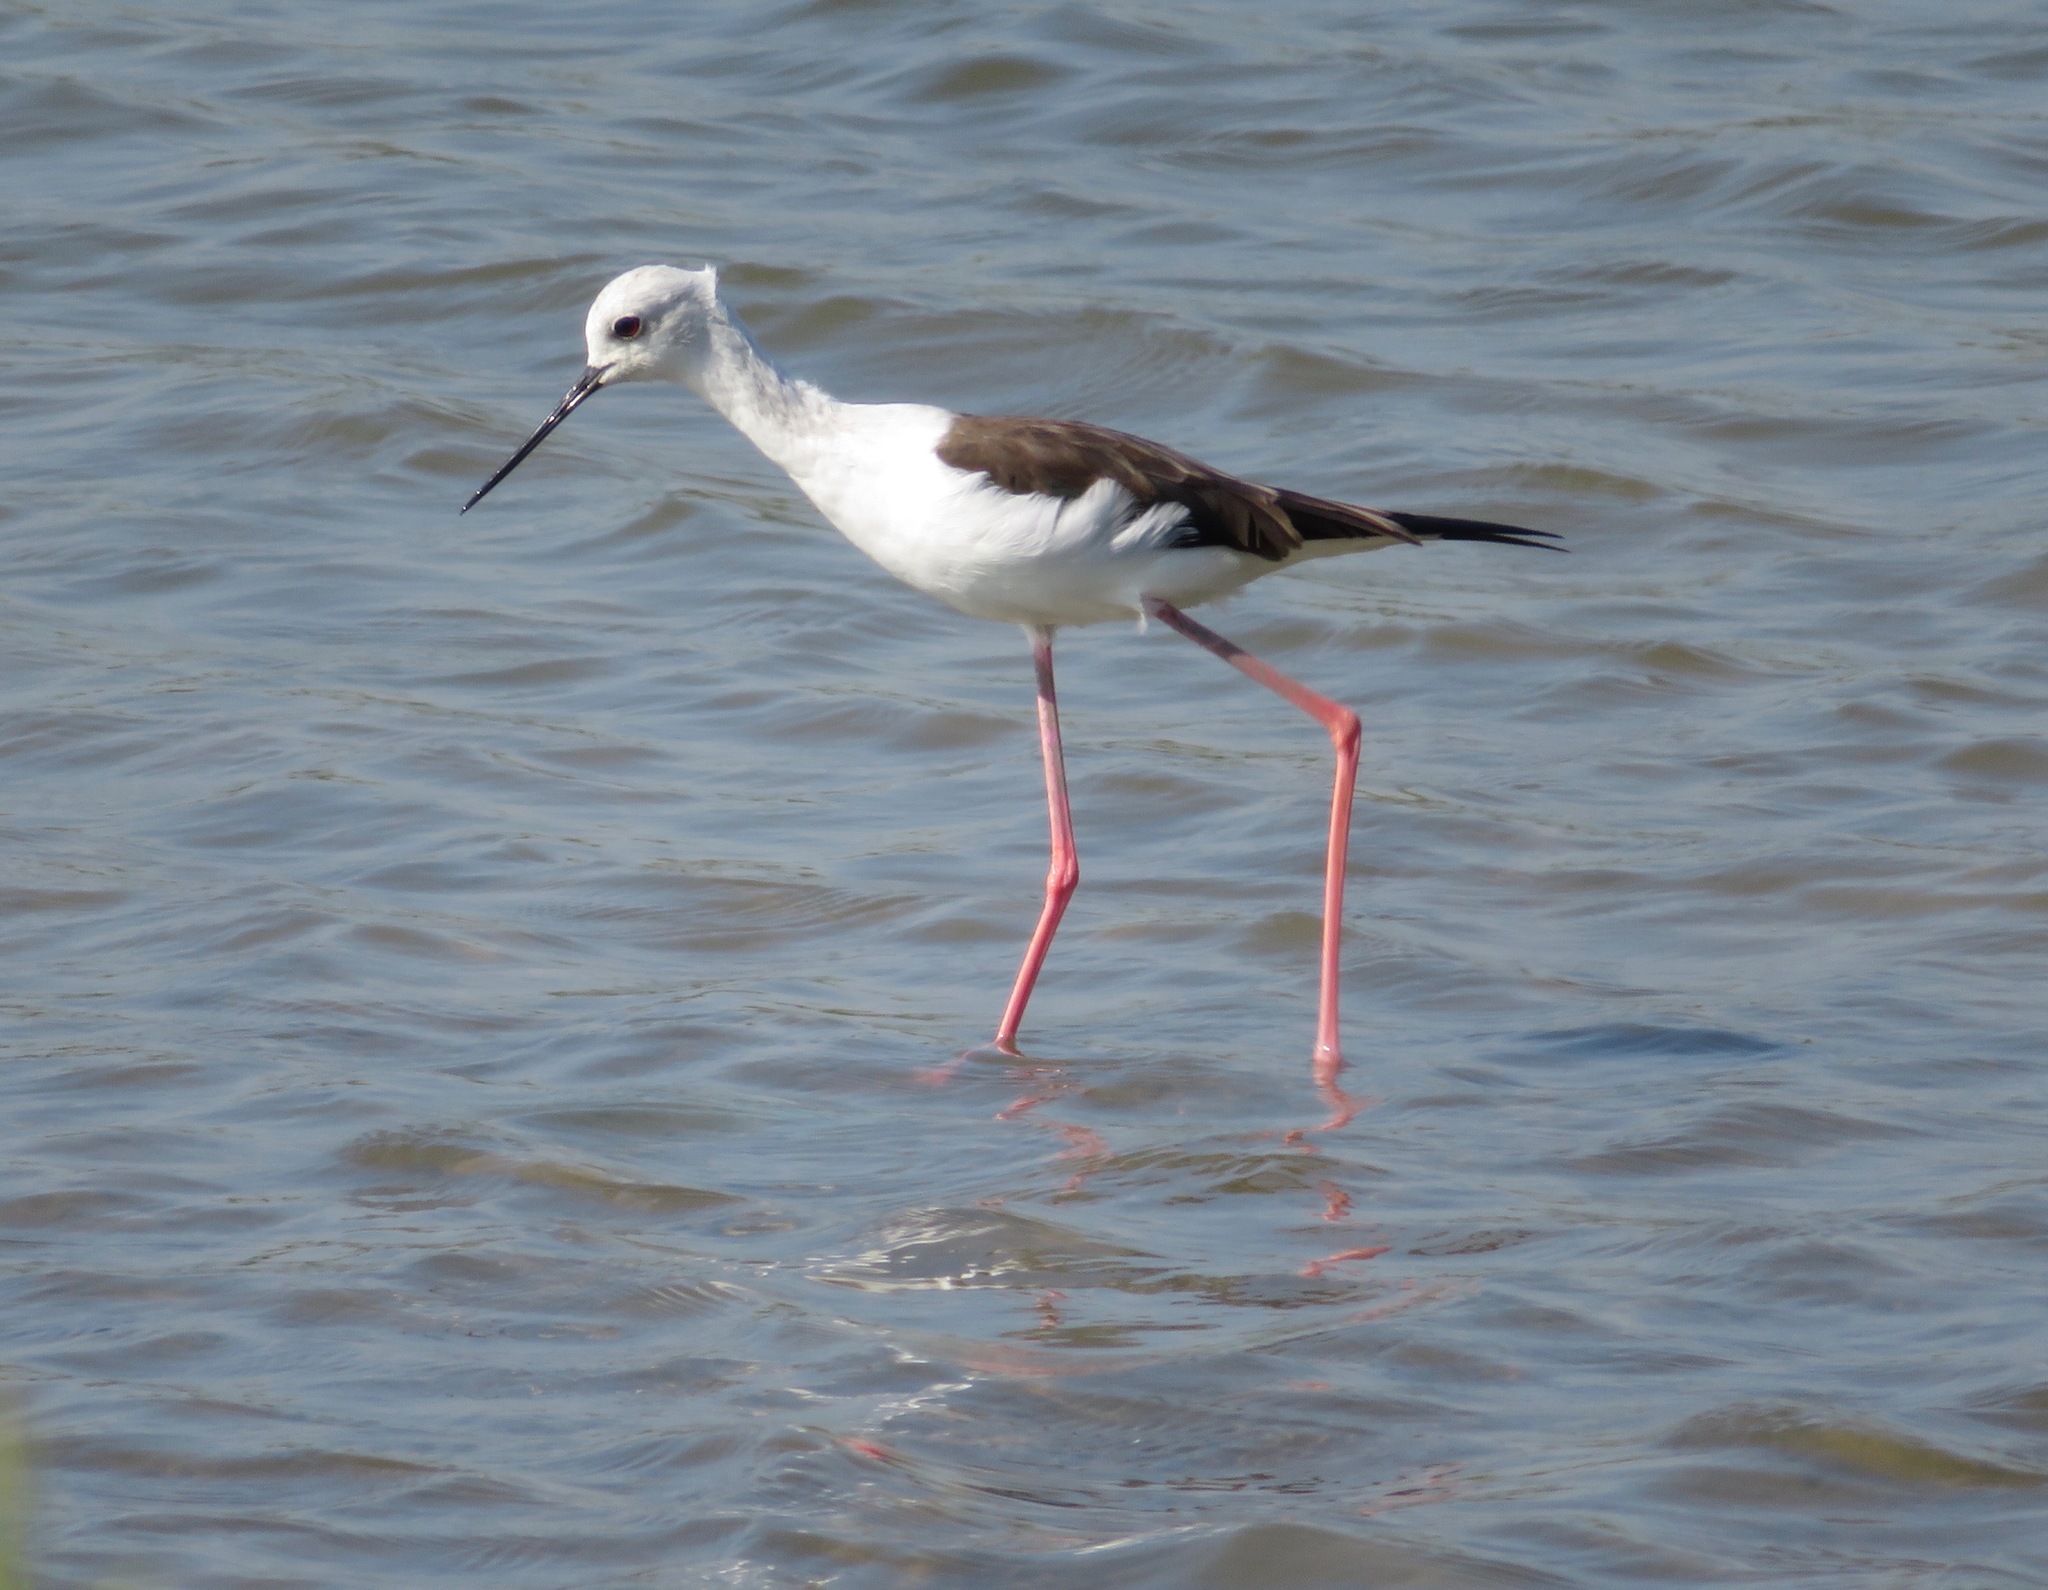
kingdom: Animalia
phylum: Chordata
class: Aves
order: Charadriiformes
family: Recurvirostridae
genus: Himantopus
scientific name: Himantopus himantopus
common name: Black-winged stilt
